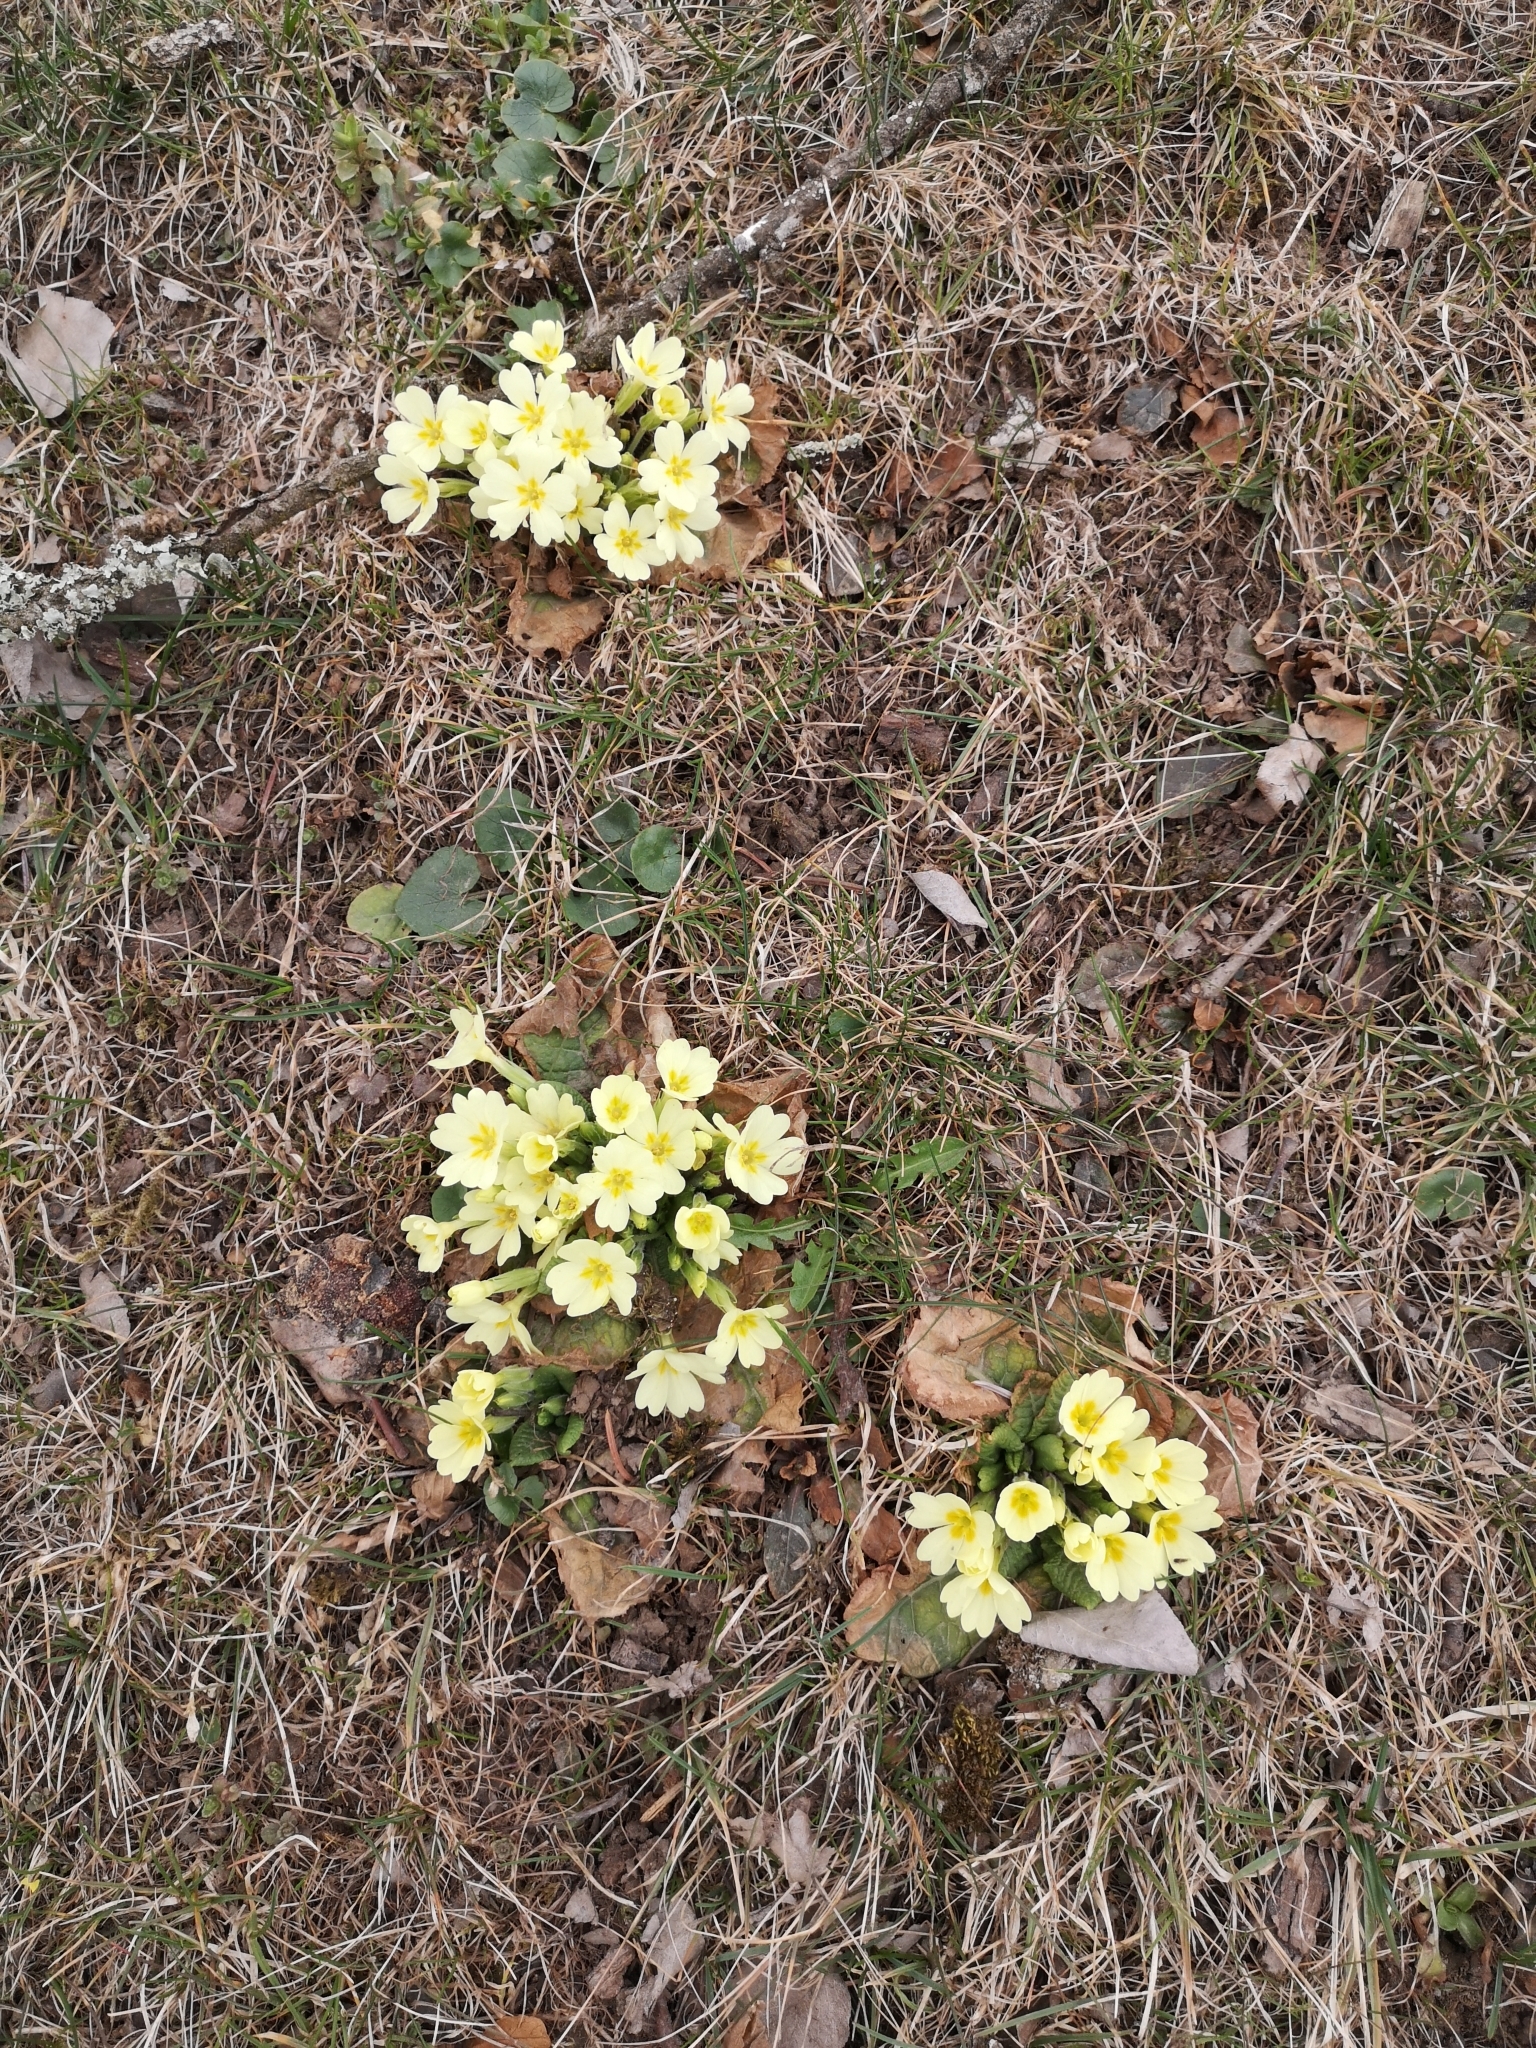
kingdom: Plantae
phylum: Tracheophyta
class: Magnoliopsida
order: Ericales
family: Primulaceae
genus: Primula
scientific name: Primula vulgaris
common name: Primrose
